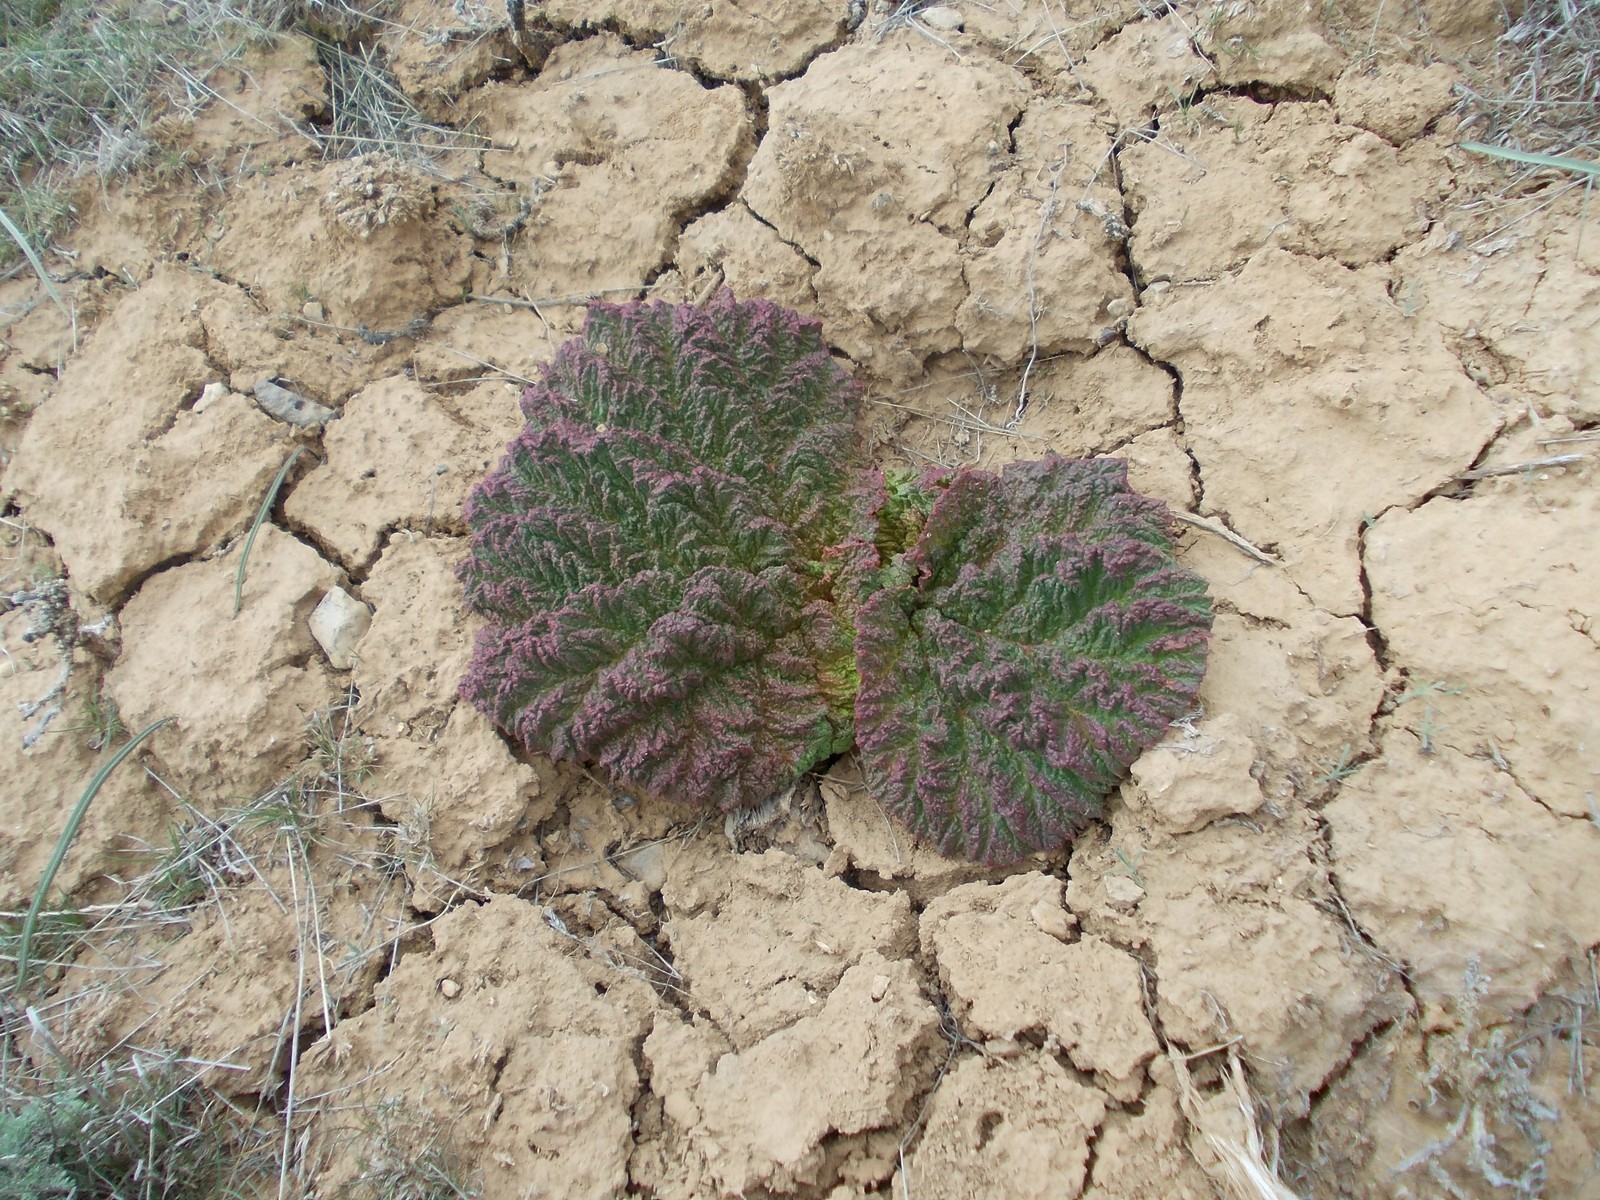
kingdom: Plantae
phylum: Tracheophyta
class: Magnoliopsida
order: Caryophyllales
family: Polygonaceae
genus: Rheum
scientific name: Rheum tataricum
